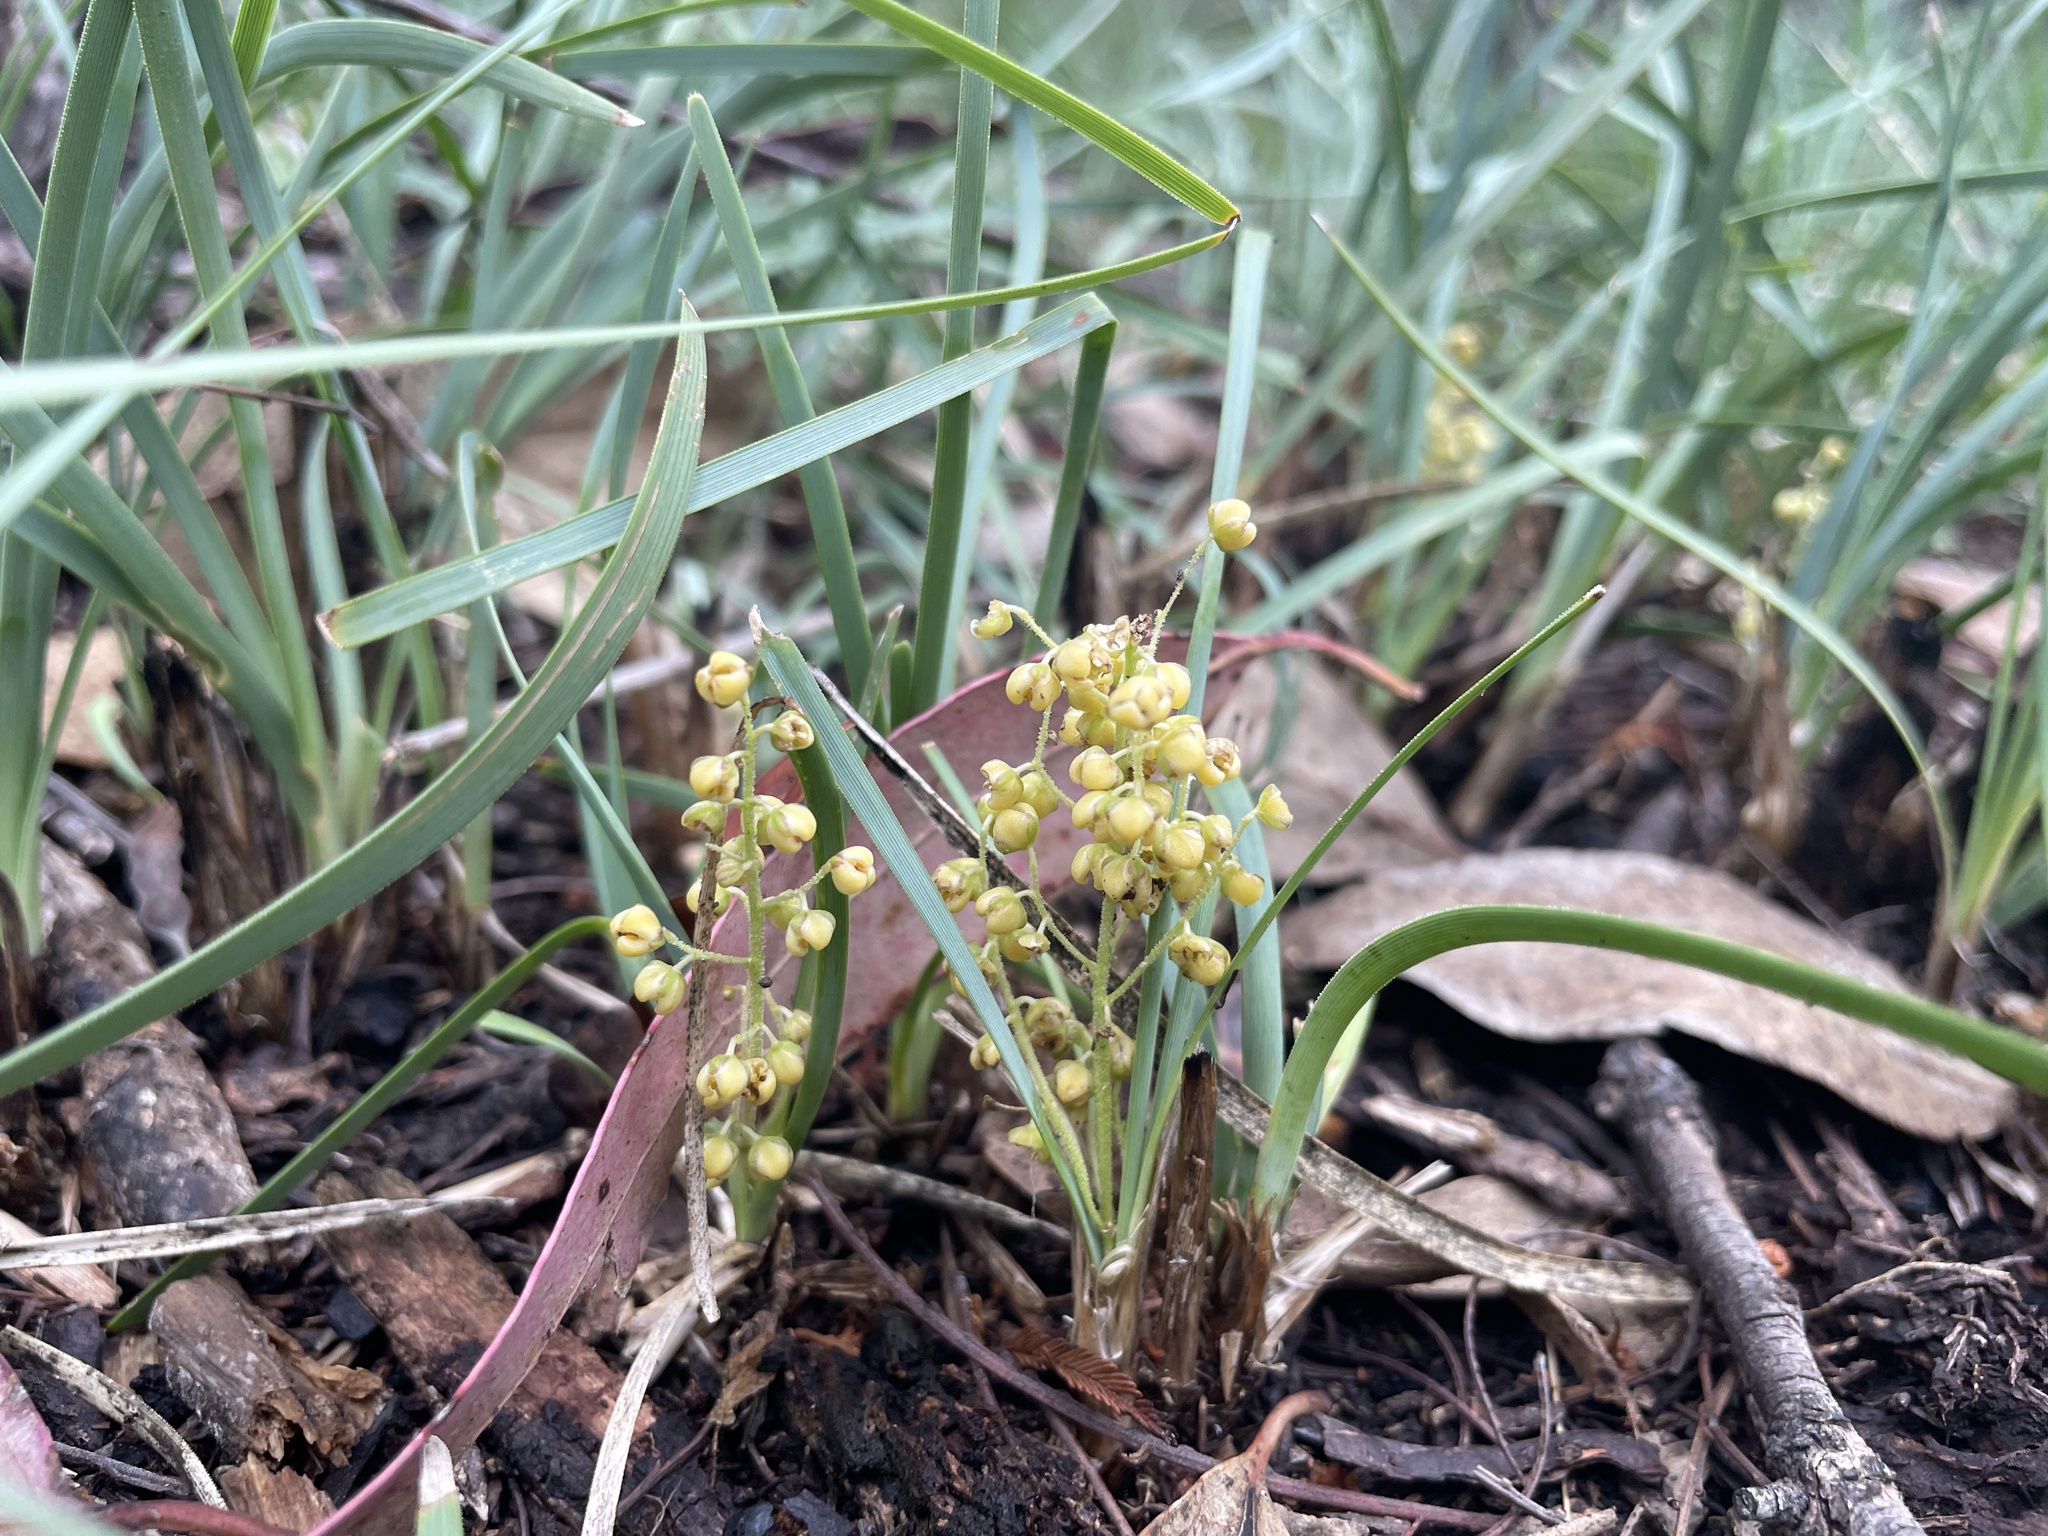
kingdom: Plantae
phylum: Tracheophyta
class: Liliopsida
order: Asparagales
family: Asparagaceae
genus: Lomandra
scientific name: Lomandra filiformis
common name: Wattle mat-rush
